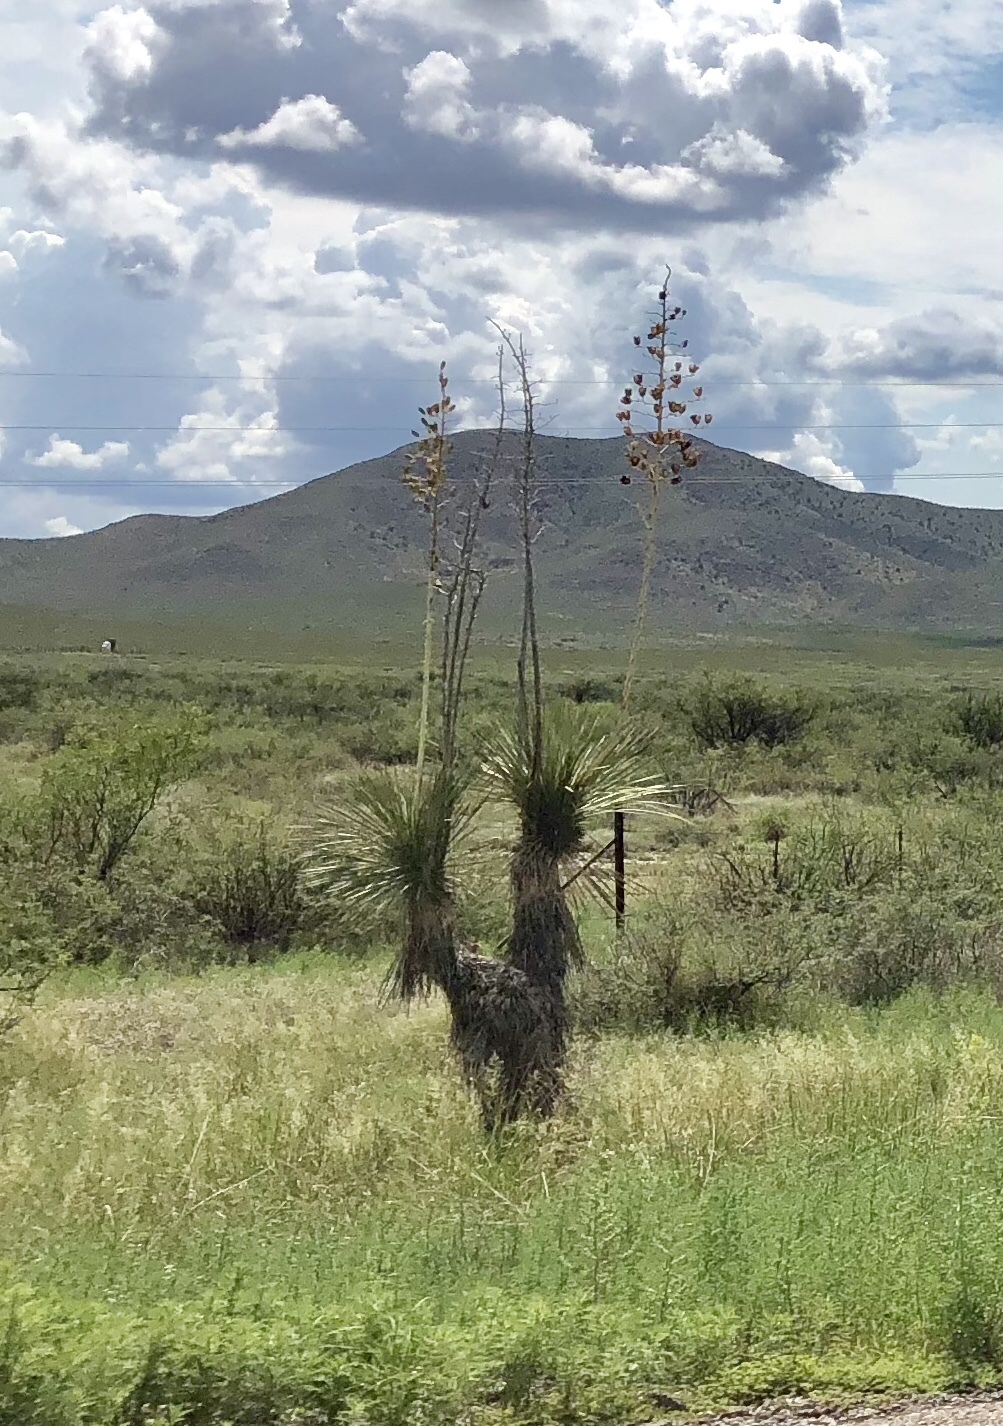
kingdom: Plantae
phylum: Tracheophyta
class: Liliopsida
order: Asparagales
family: Asparagaceae
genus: Yucca
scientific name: Yucca elata
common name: Palmella
